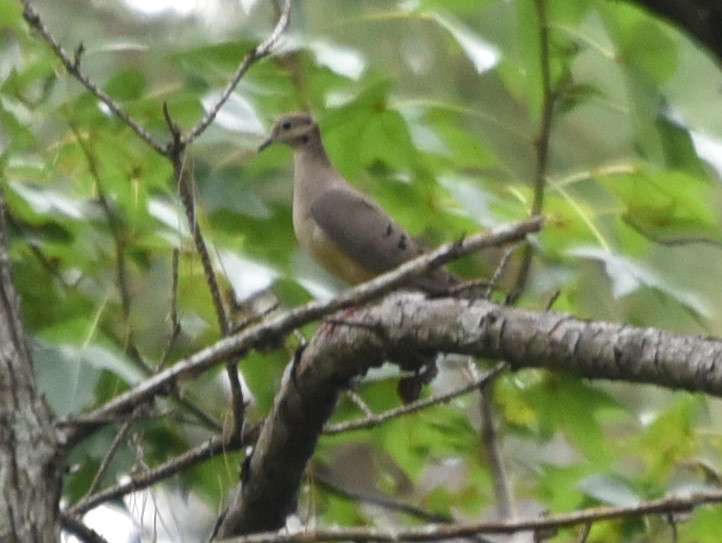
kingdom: Animalia
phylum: Chordata
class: Aves
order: Columbiformes
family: Columbidae
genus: Zenaida
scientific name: Zenaida macroura
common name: Mourning dove
